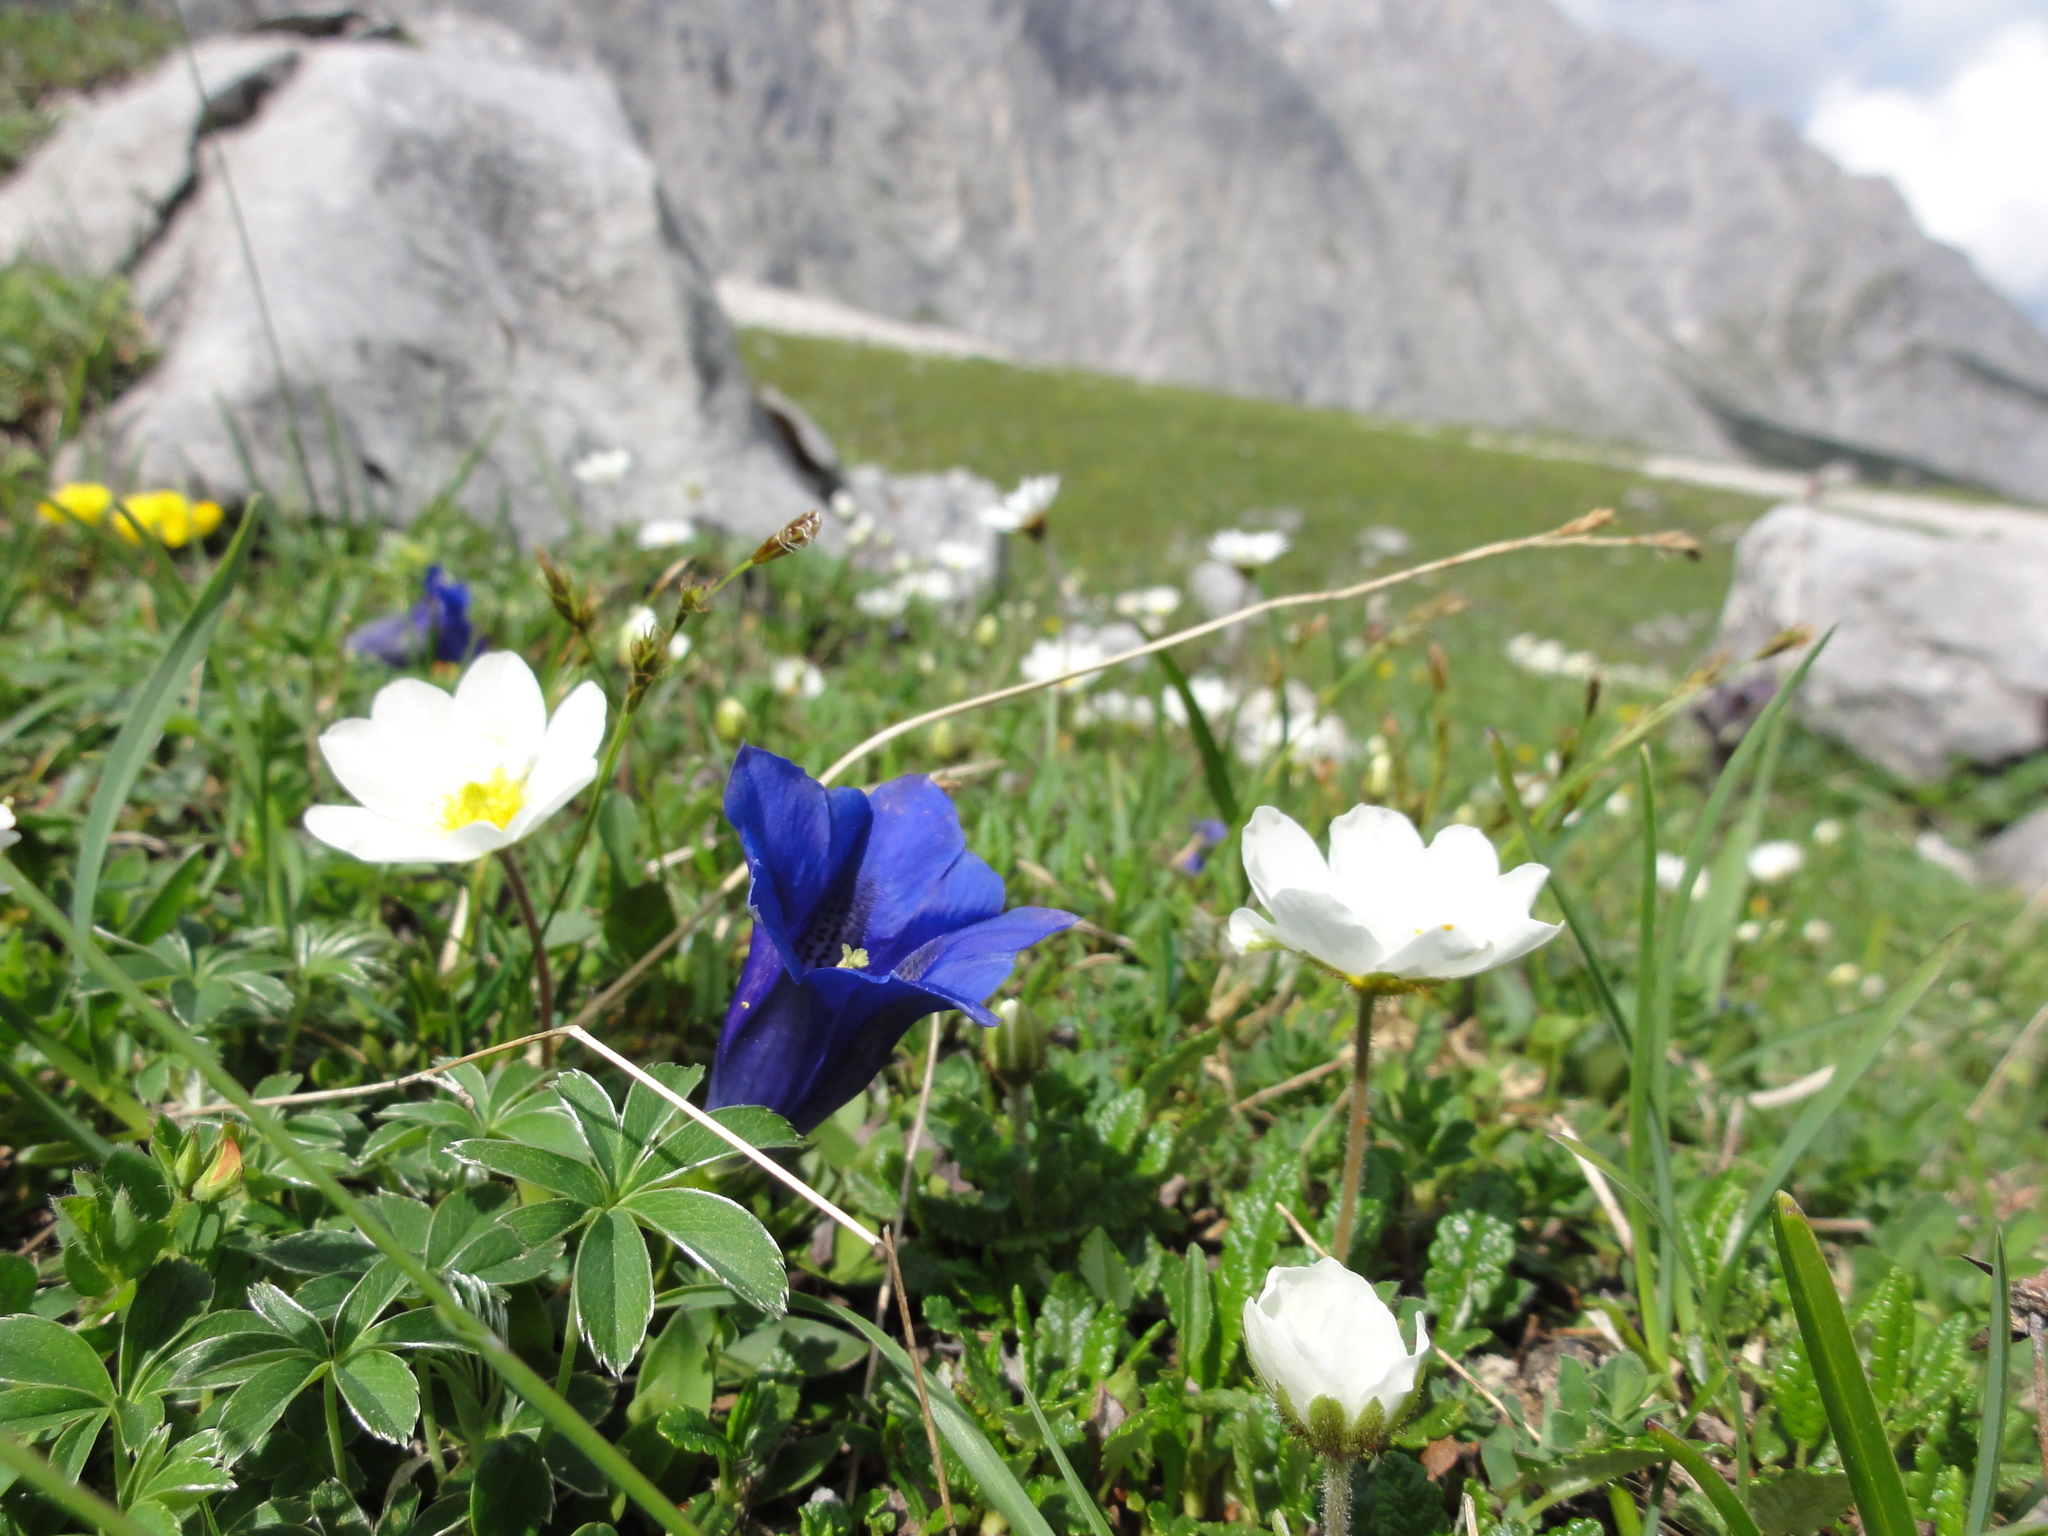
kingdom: Plantae
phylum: Tracheophyta
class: Magnoliopsida
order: Gentianales
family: Gentianaceae
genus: Gentiana
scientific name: Gentiana clusii
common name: Trumpet gentian
